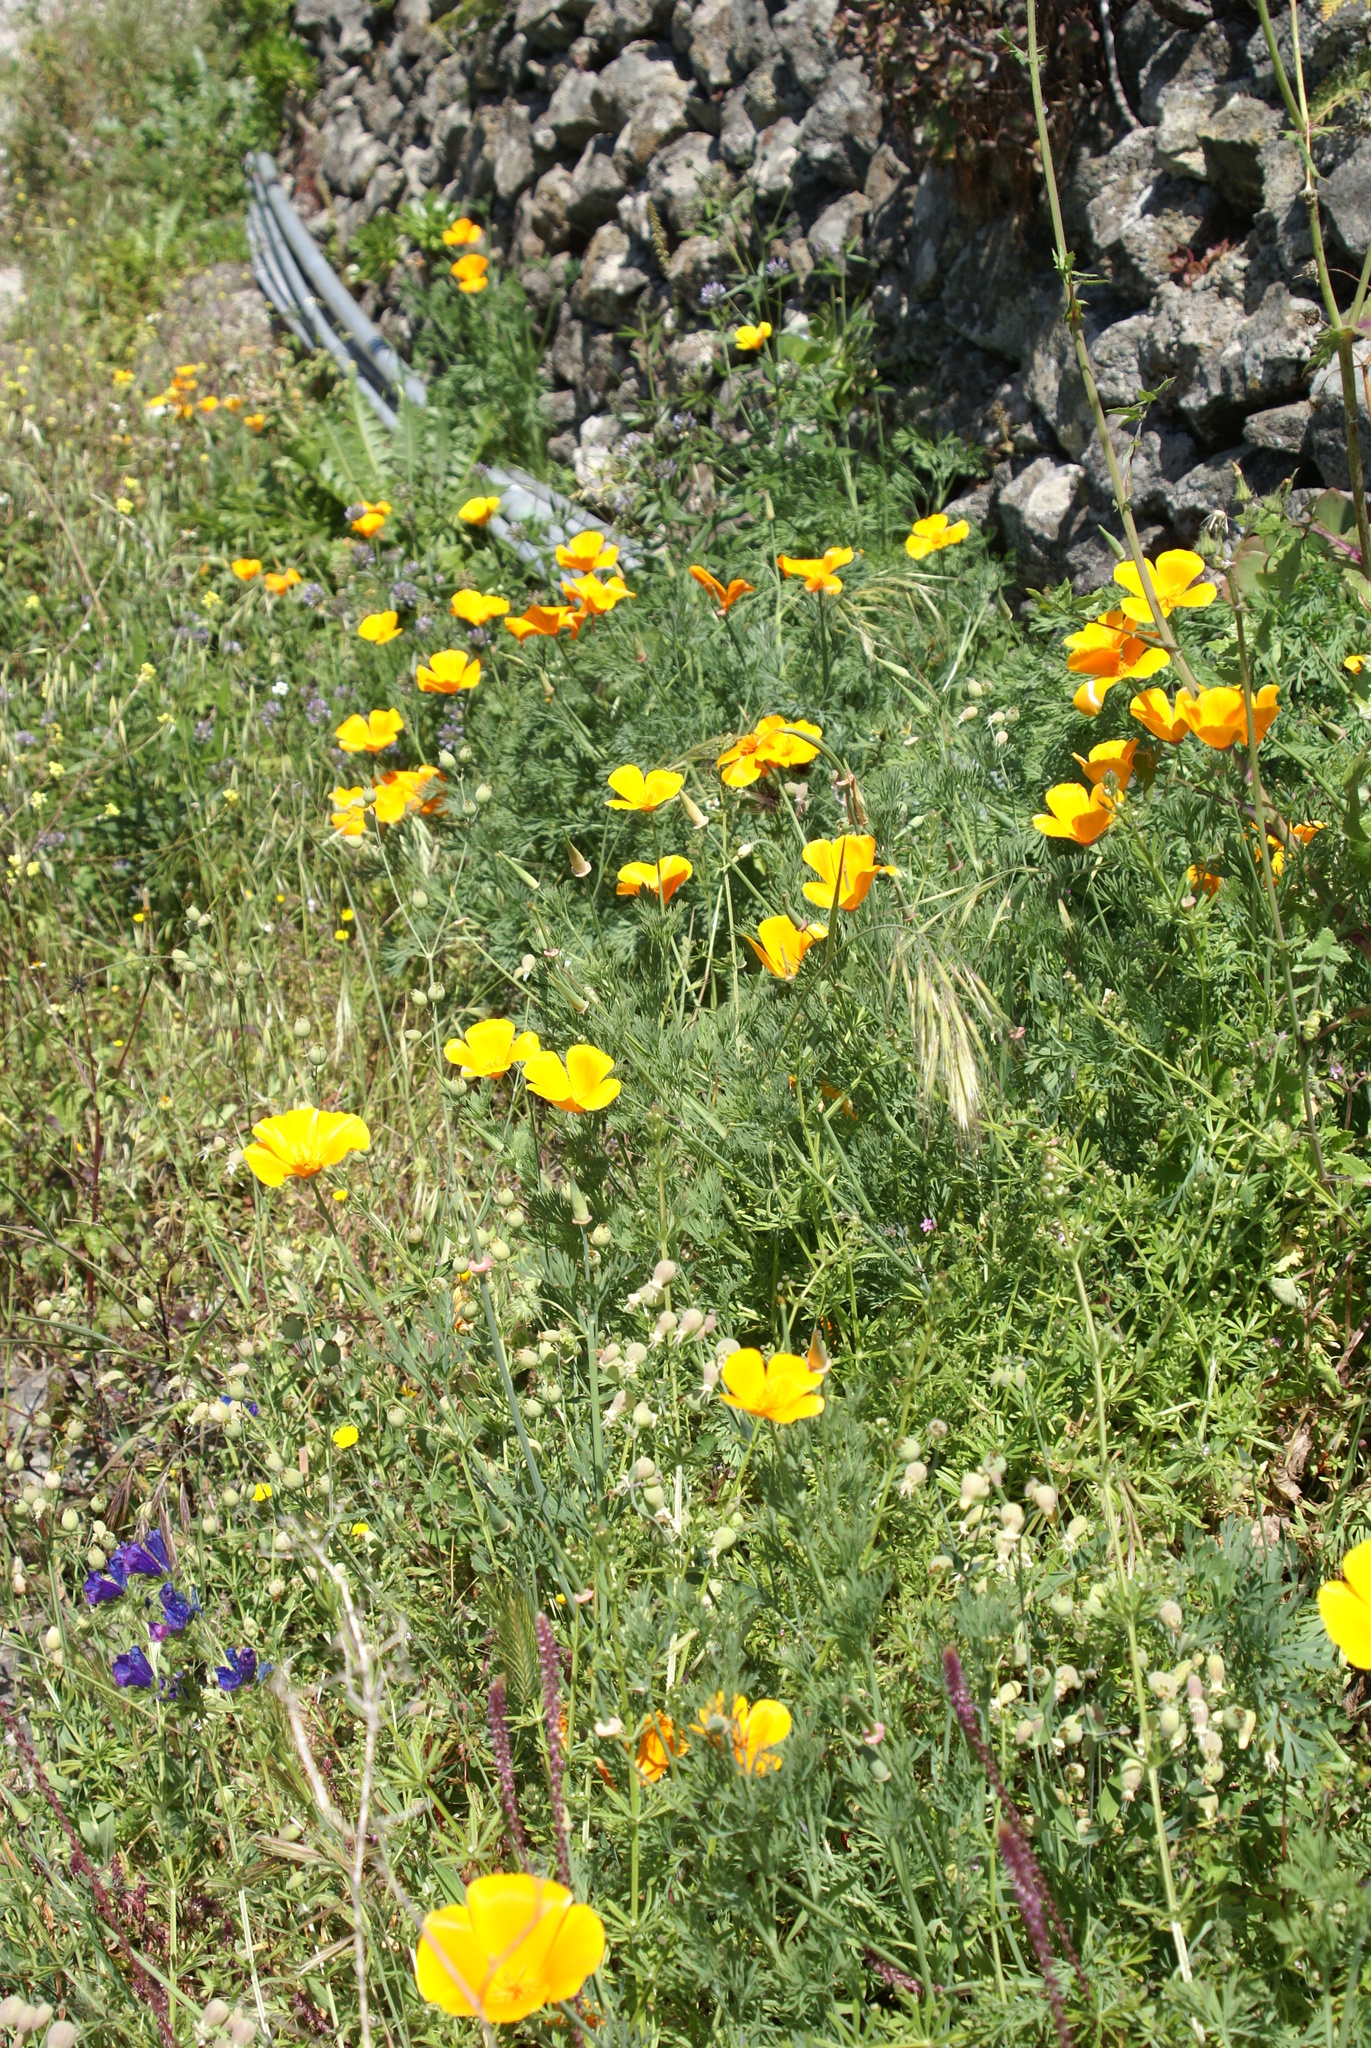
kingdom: Plantae
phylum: Tracheophyta
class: Magnoliopsida
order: Ranunculales
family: Papaveraceae
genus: Eschscholzia
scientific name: Eschscholzia californica
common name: California poppy
